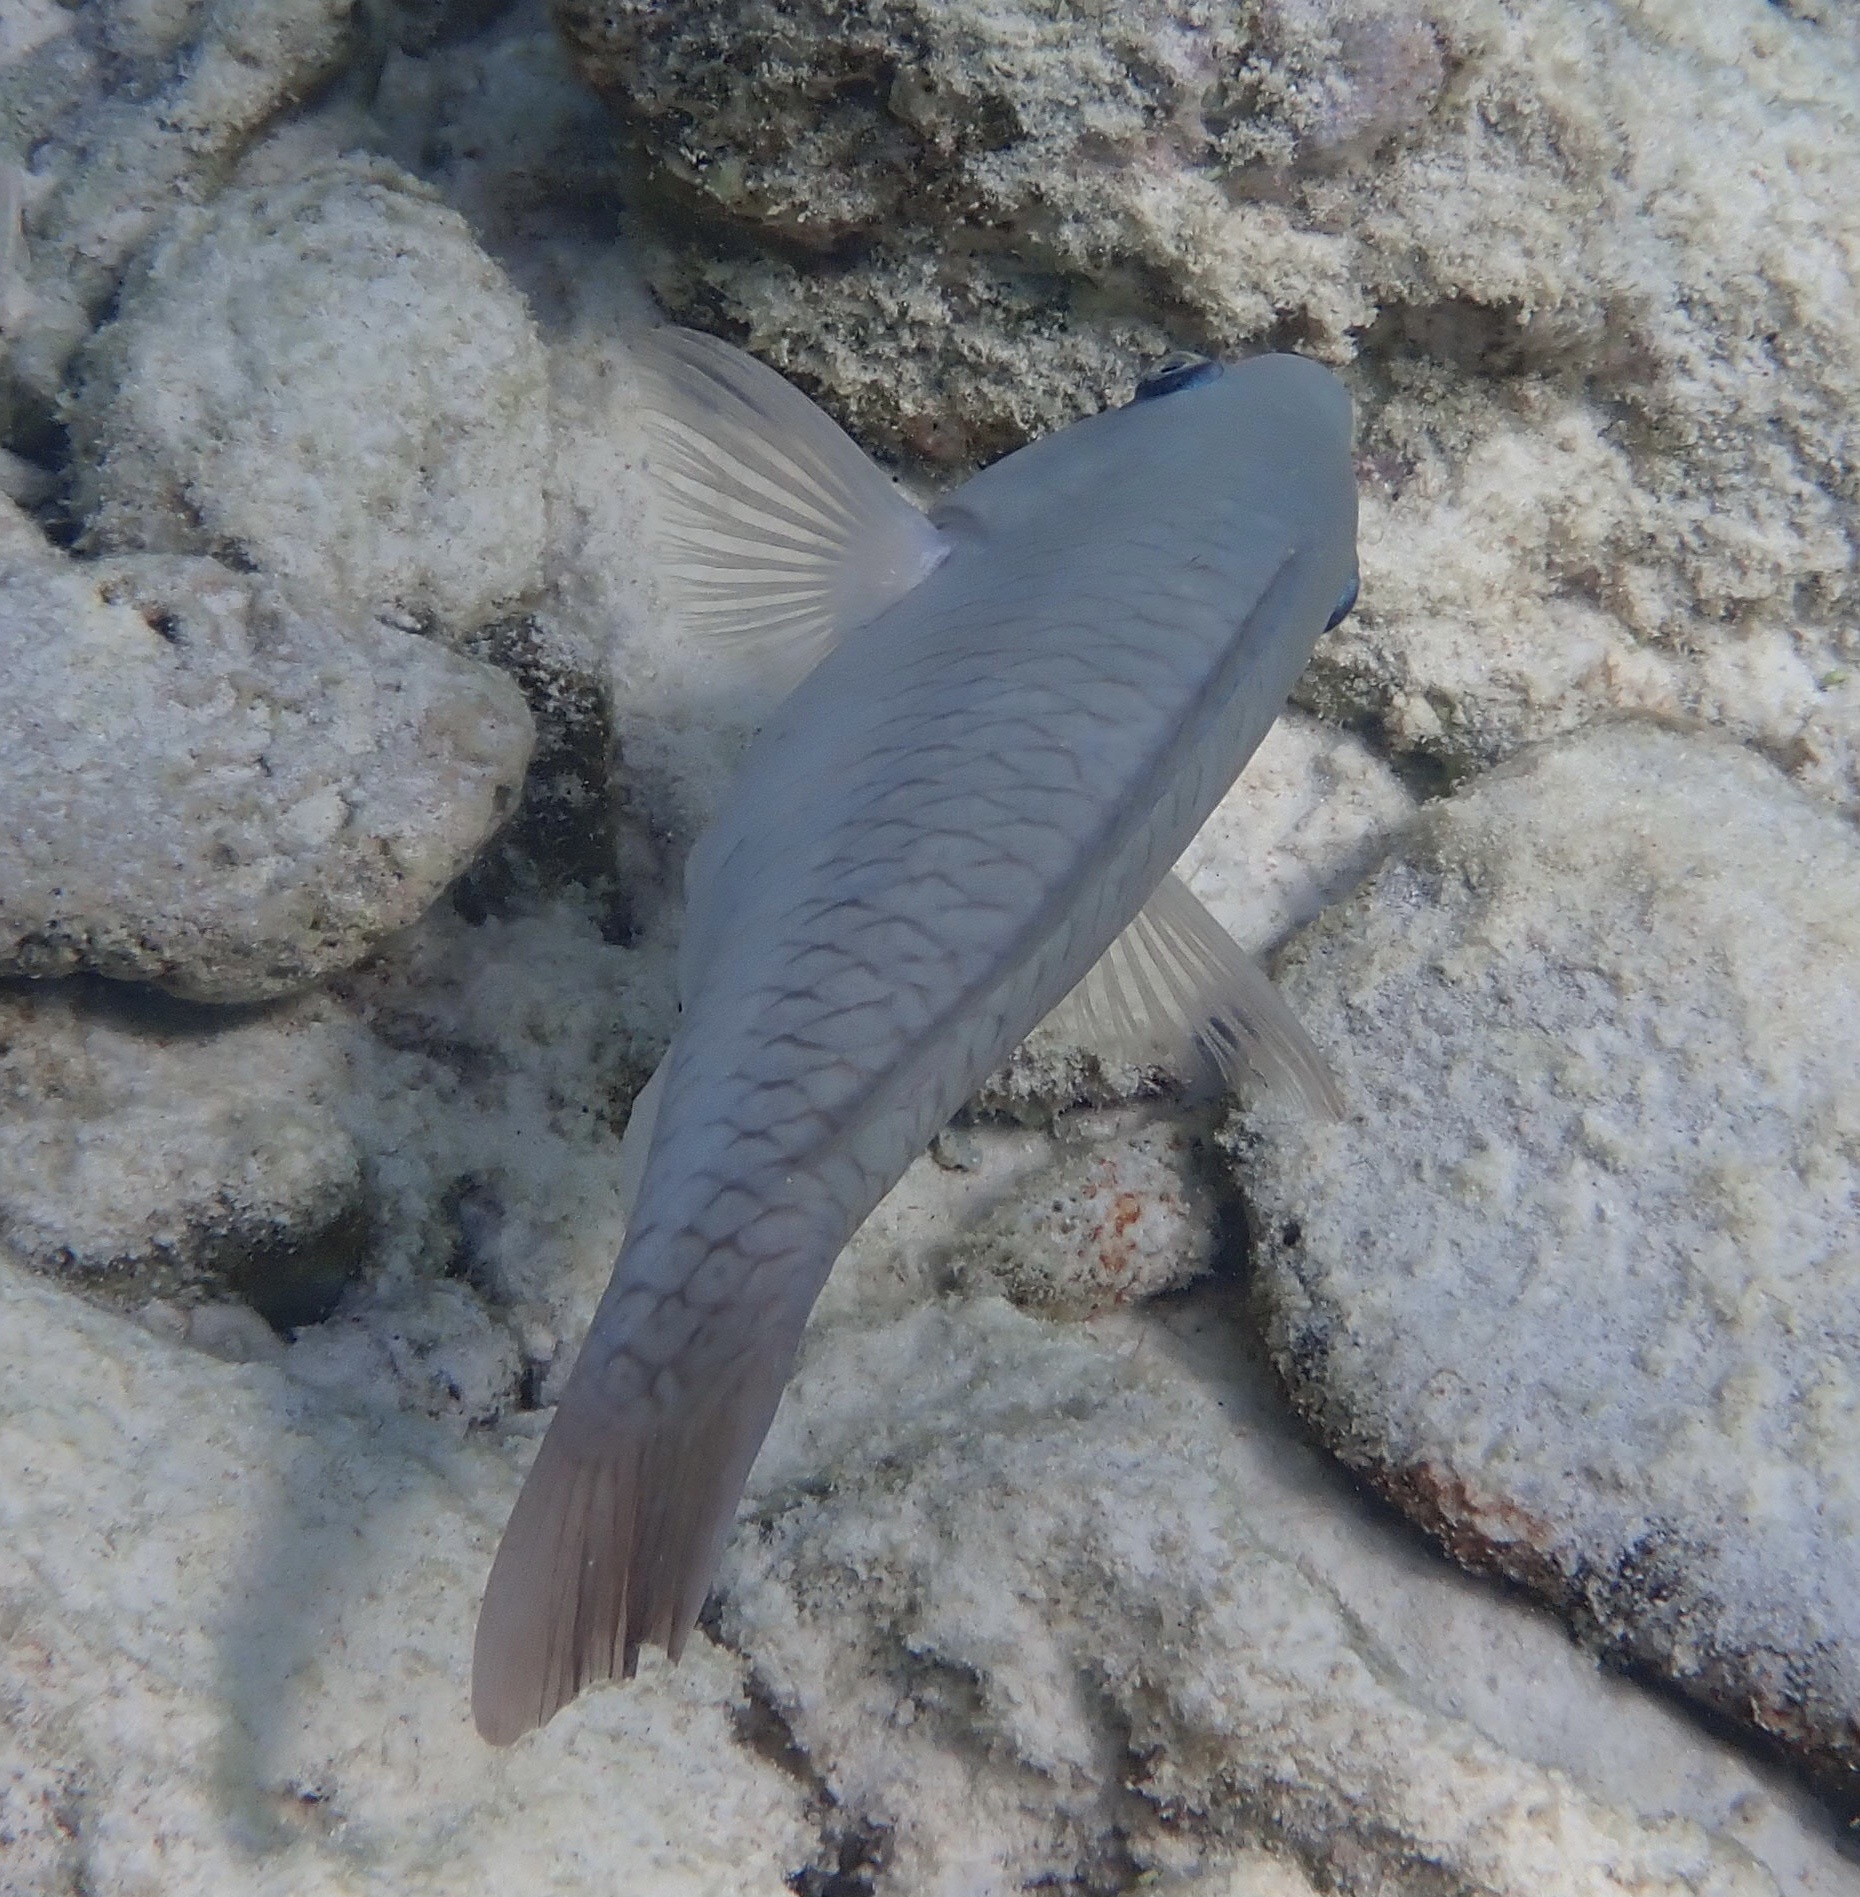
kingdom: Animalia
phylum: Chordata
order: Perciformes
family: Scaridae
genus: Scarus
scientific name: Scarus vetula
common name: Queen parrotfish
